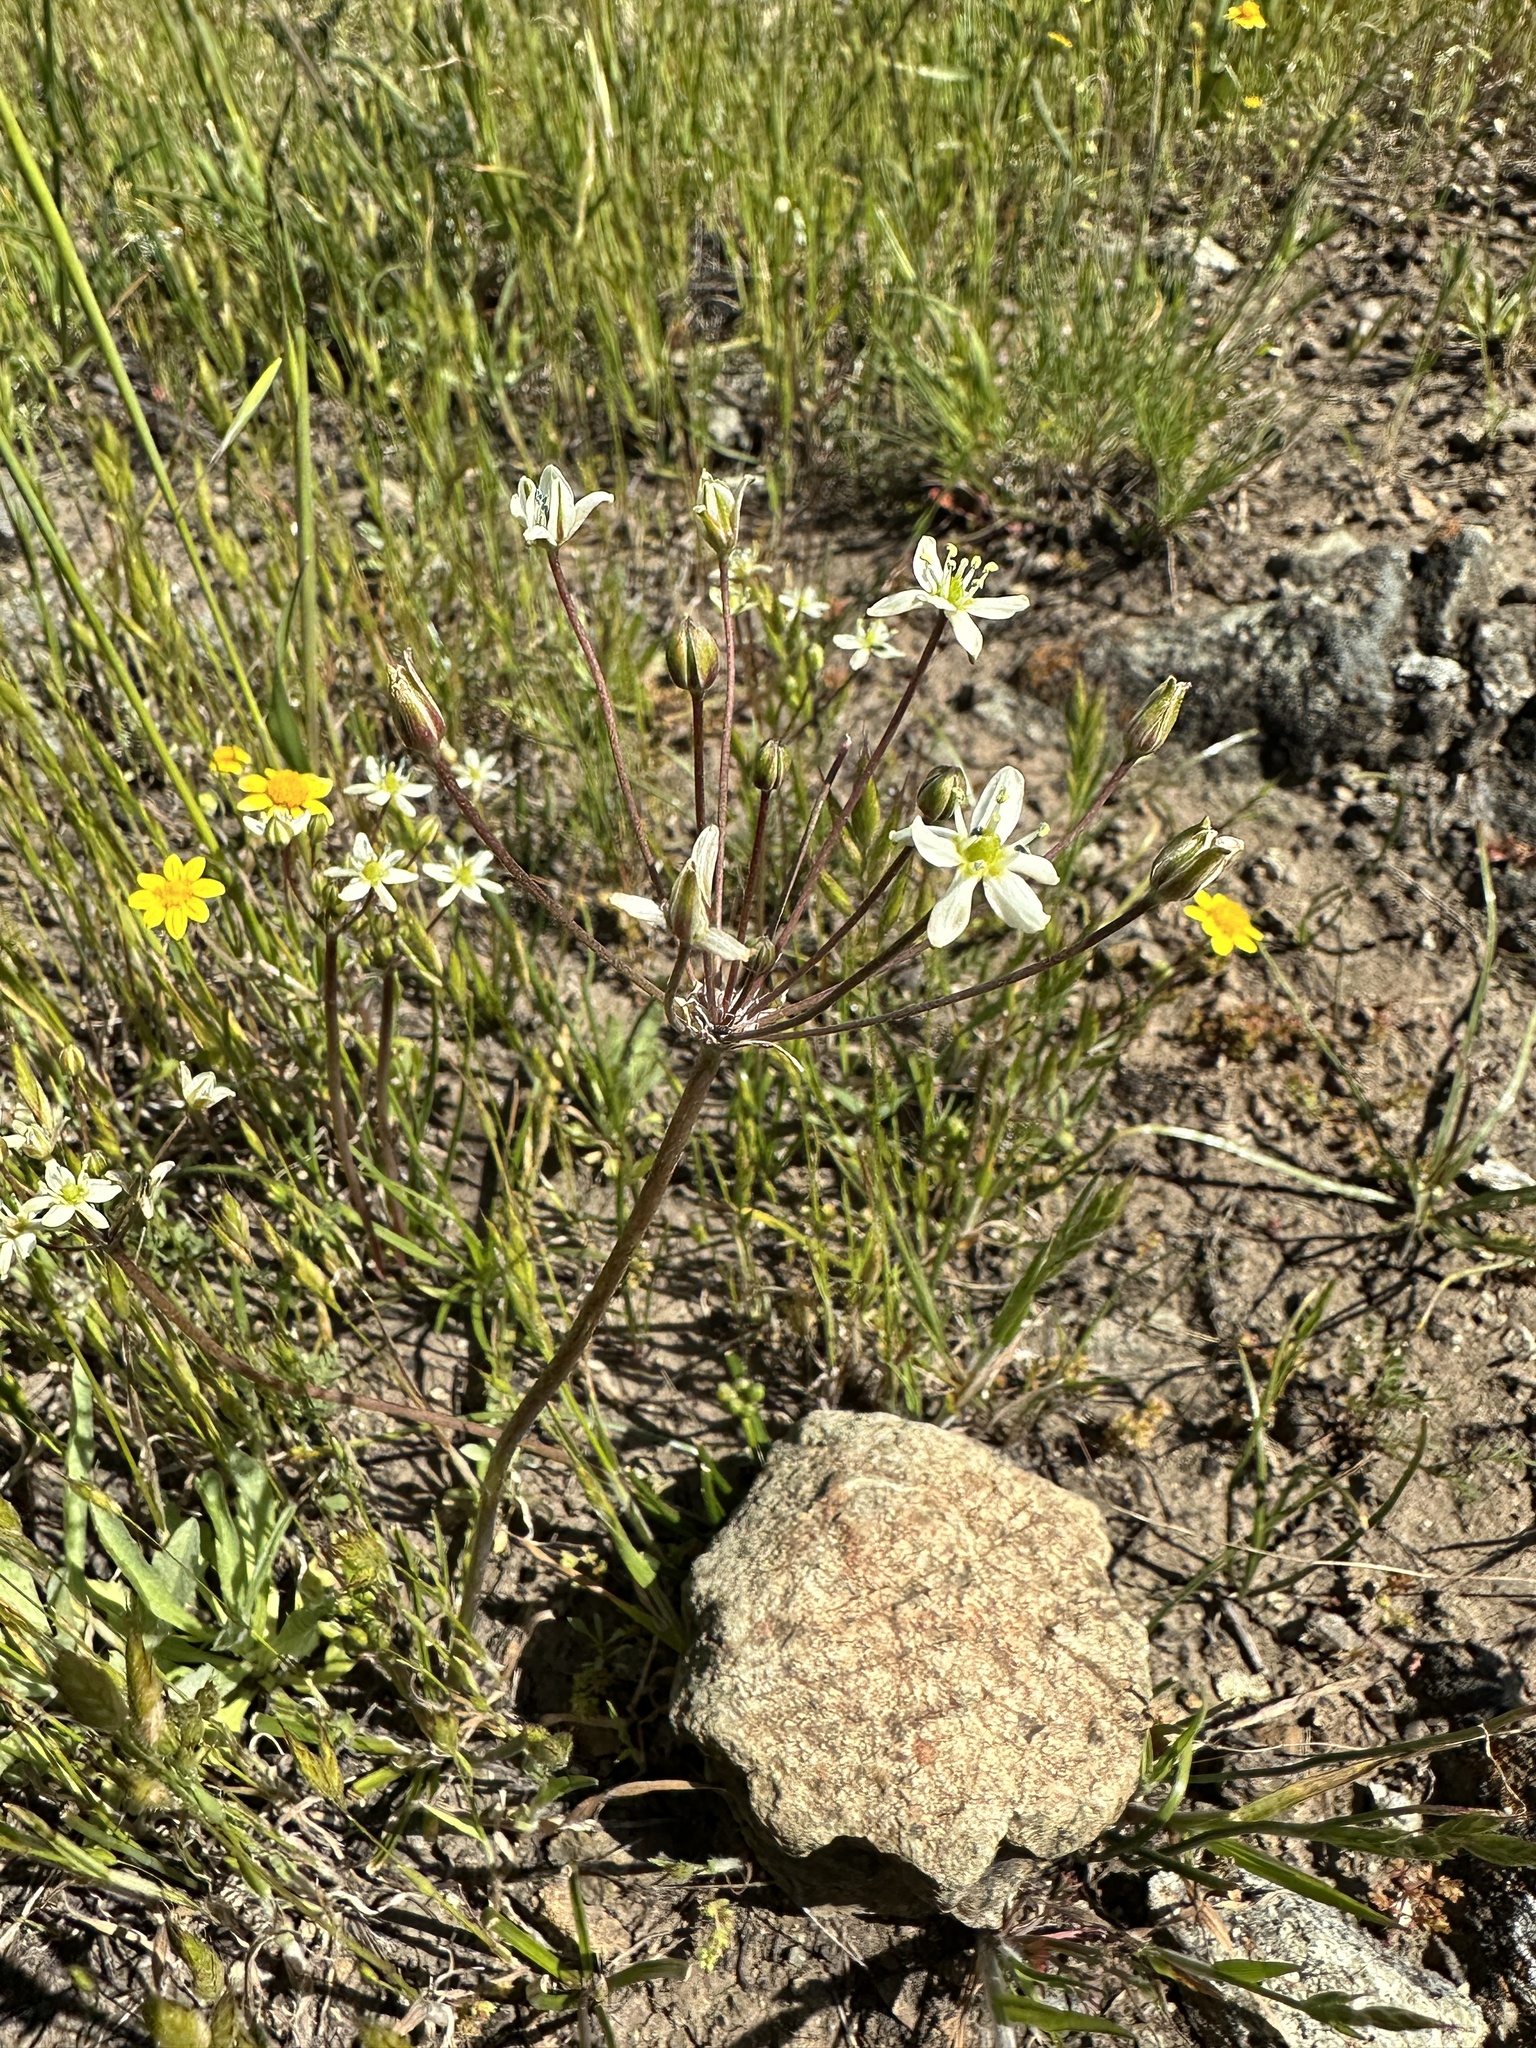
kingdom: Plantae
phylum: Tracheophyta
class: Liliopsida
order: Asparagales
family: Asparagaceae
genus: Muilla
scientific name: Muilla maritima
